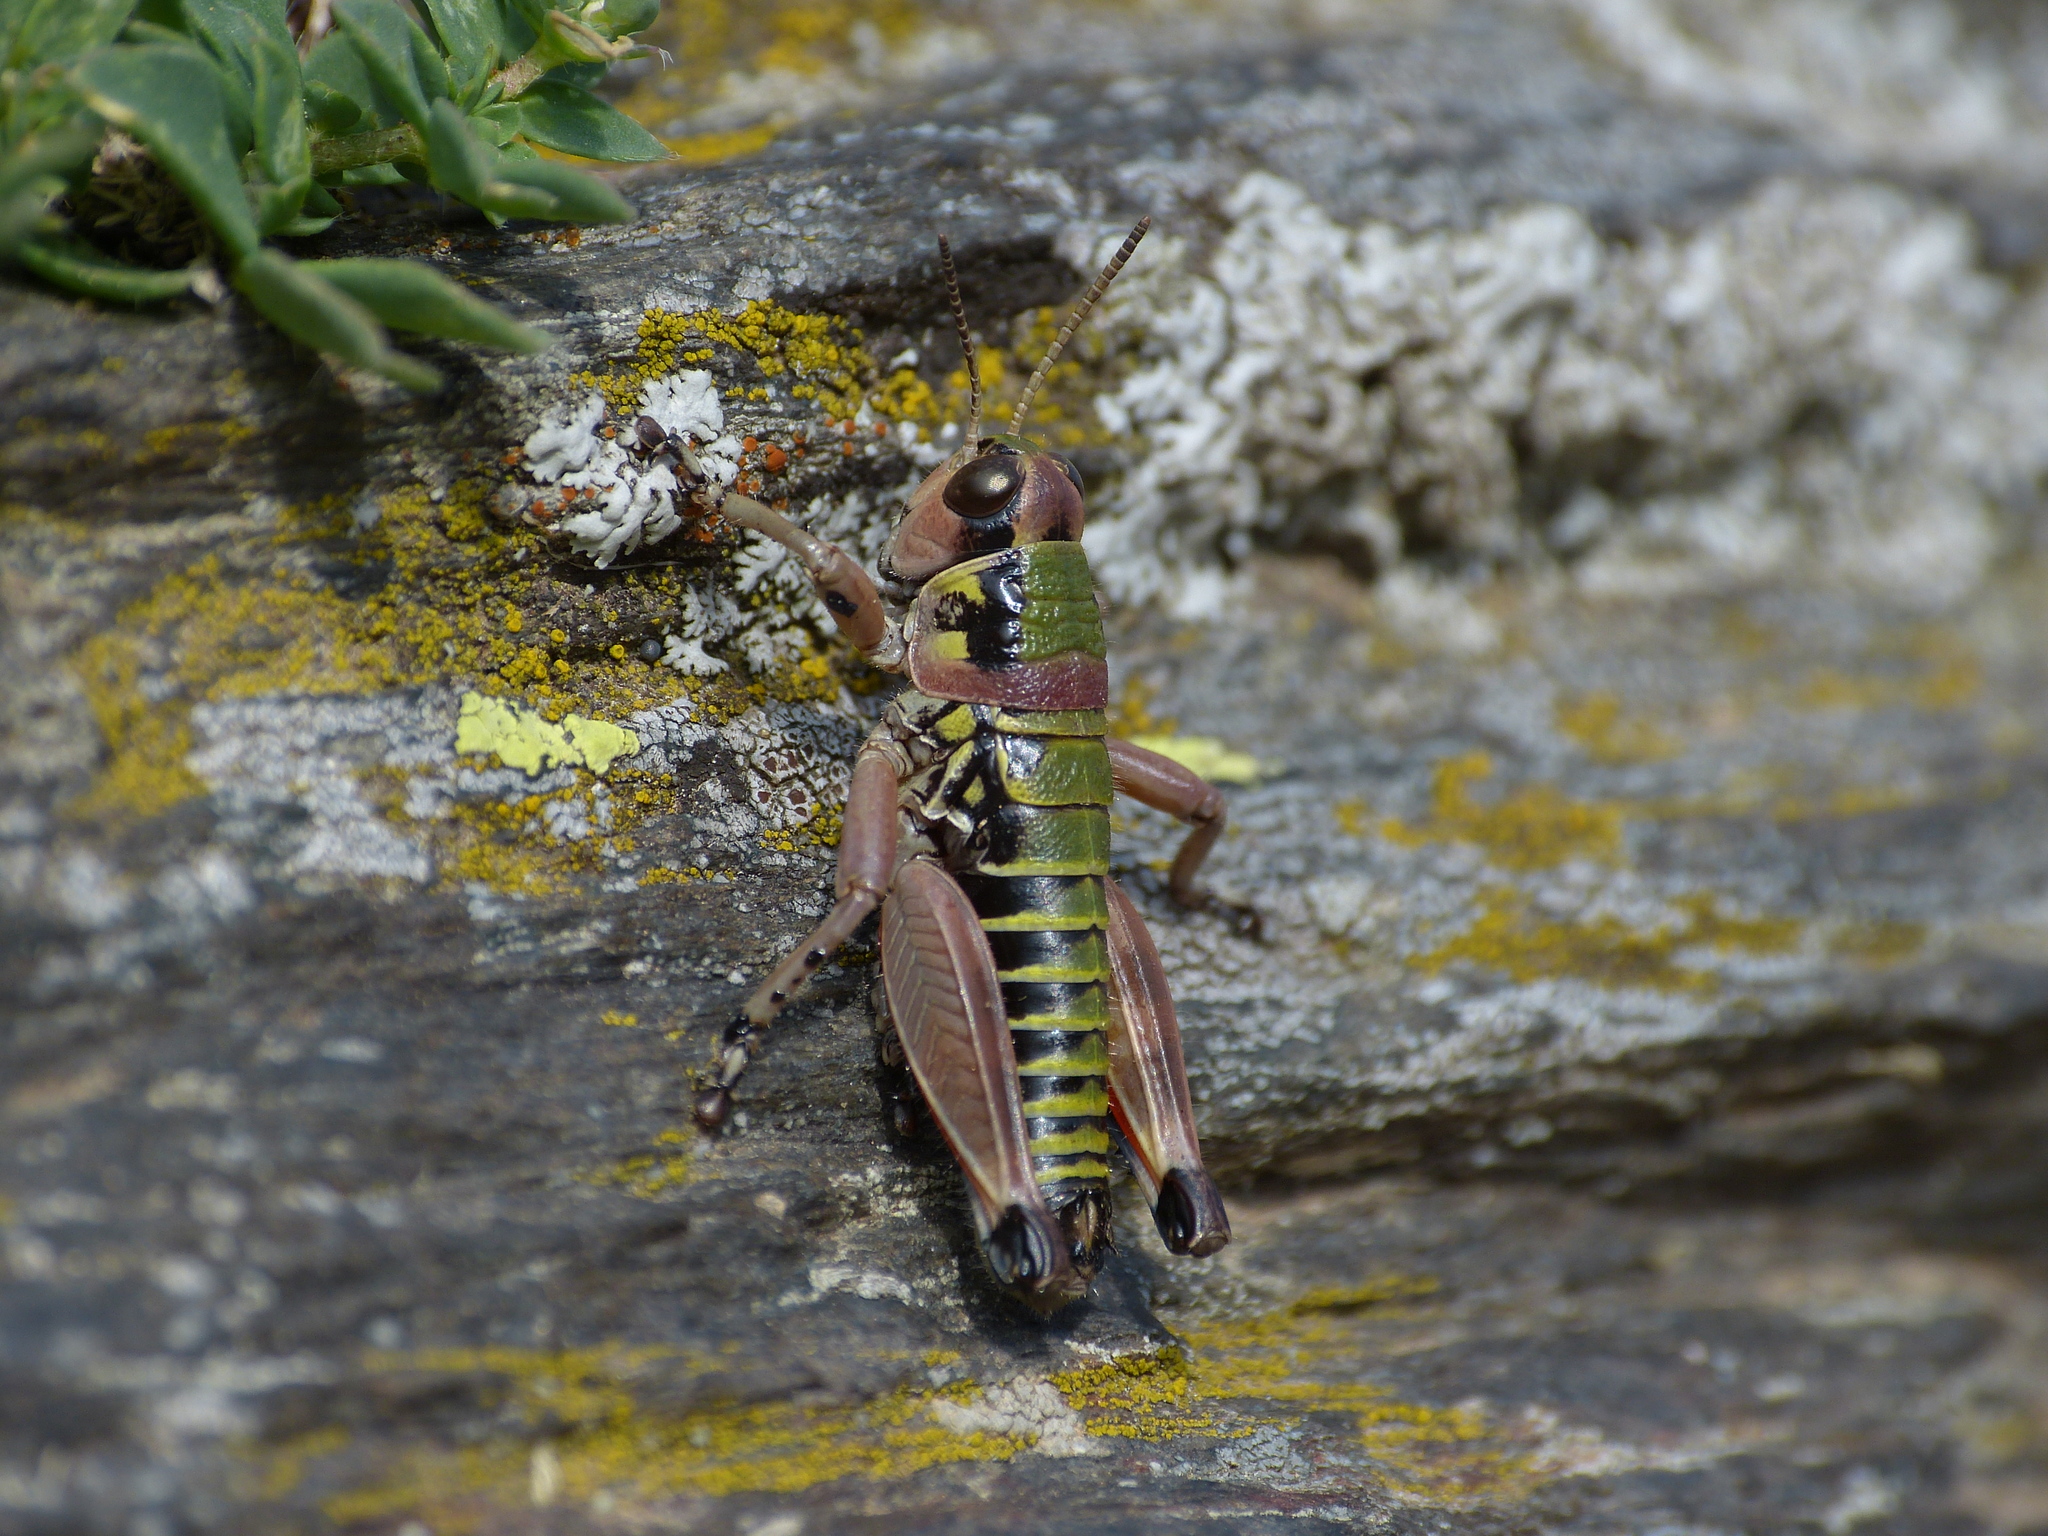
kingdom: Animalia
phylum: Arthropoda
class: Insecta
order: Orthoptera
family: Acrididae
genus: Cophopodisma
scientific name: Cophopodisma pyrenaea
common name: Pyrenean mountain grasshopper
